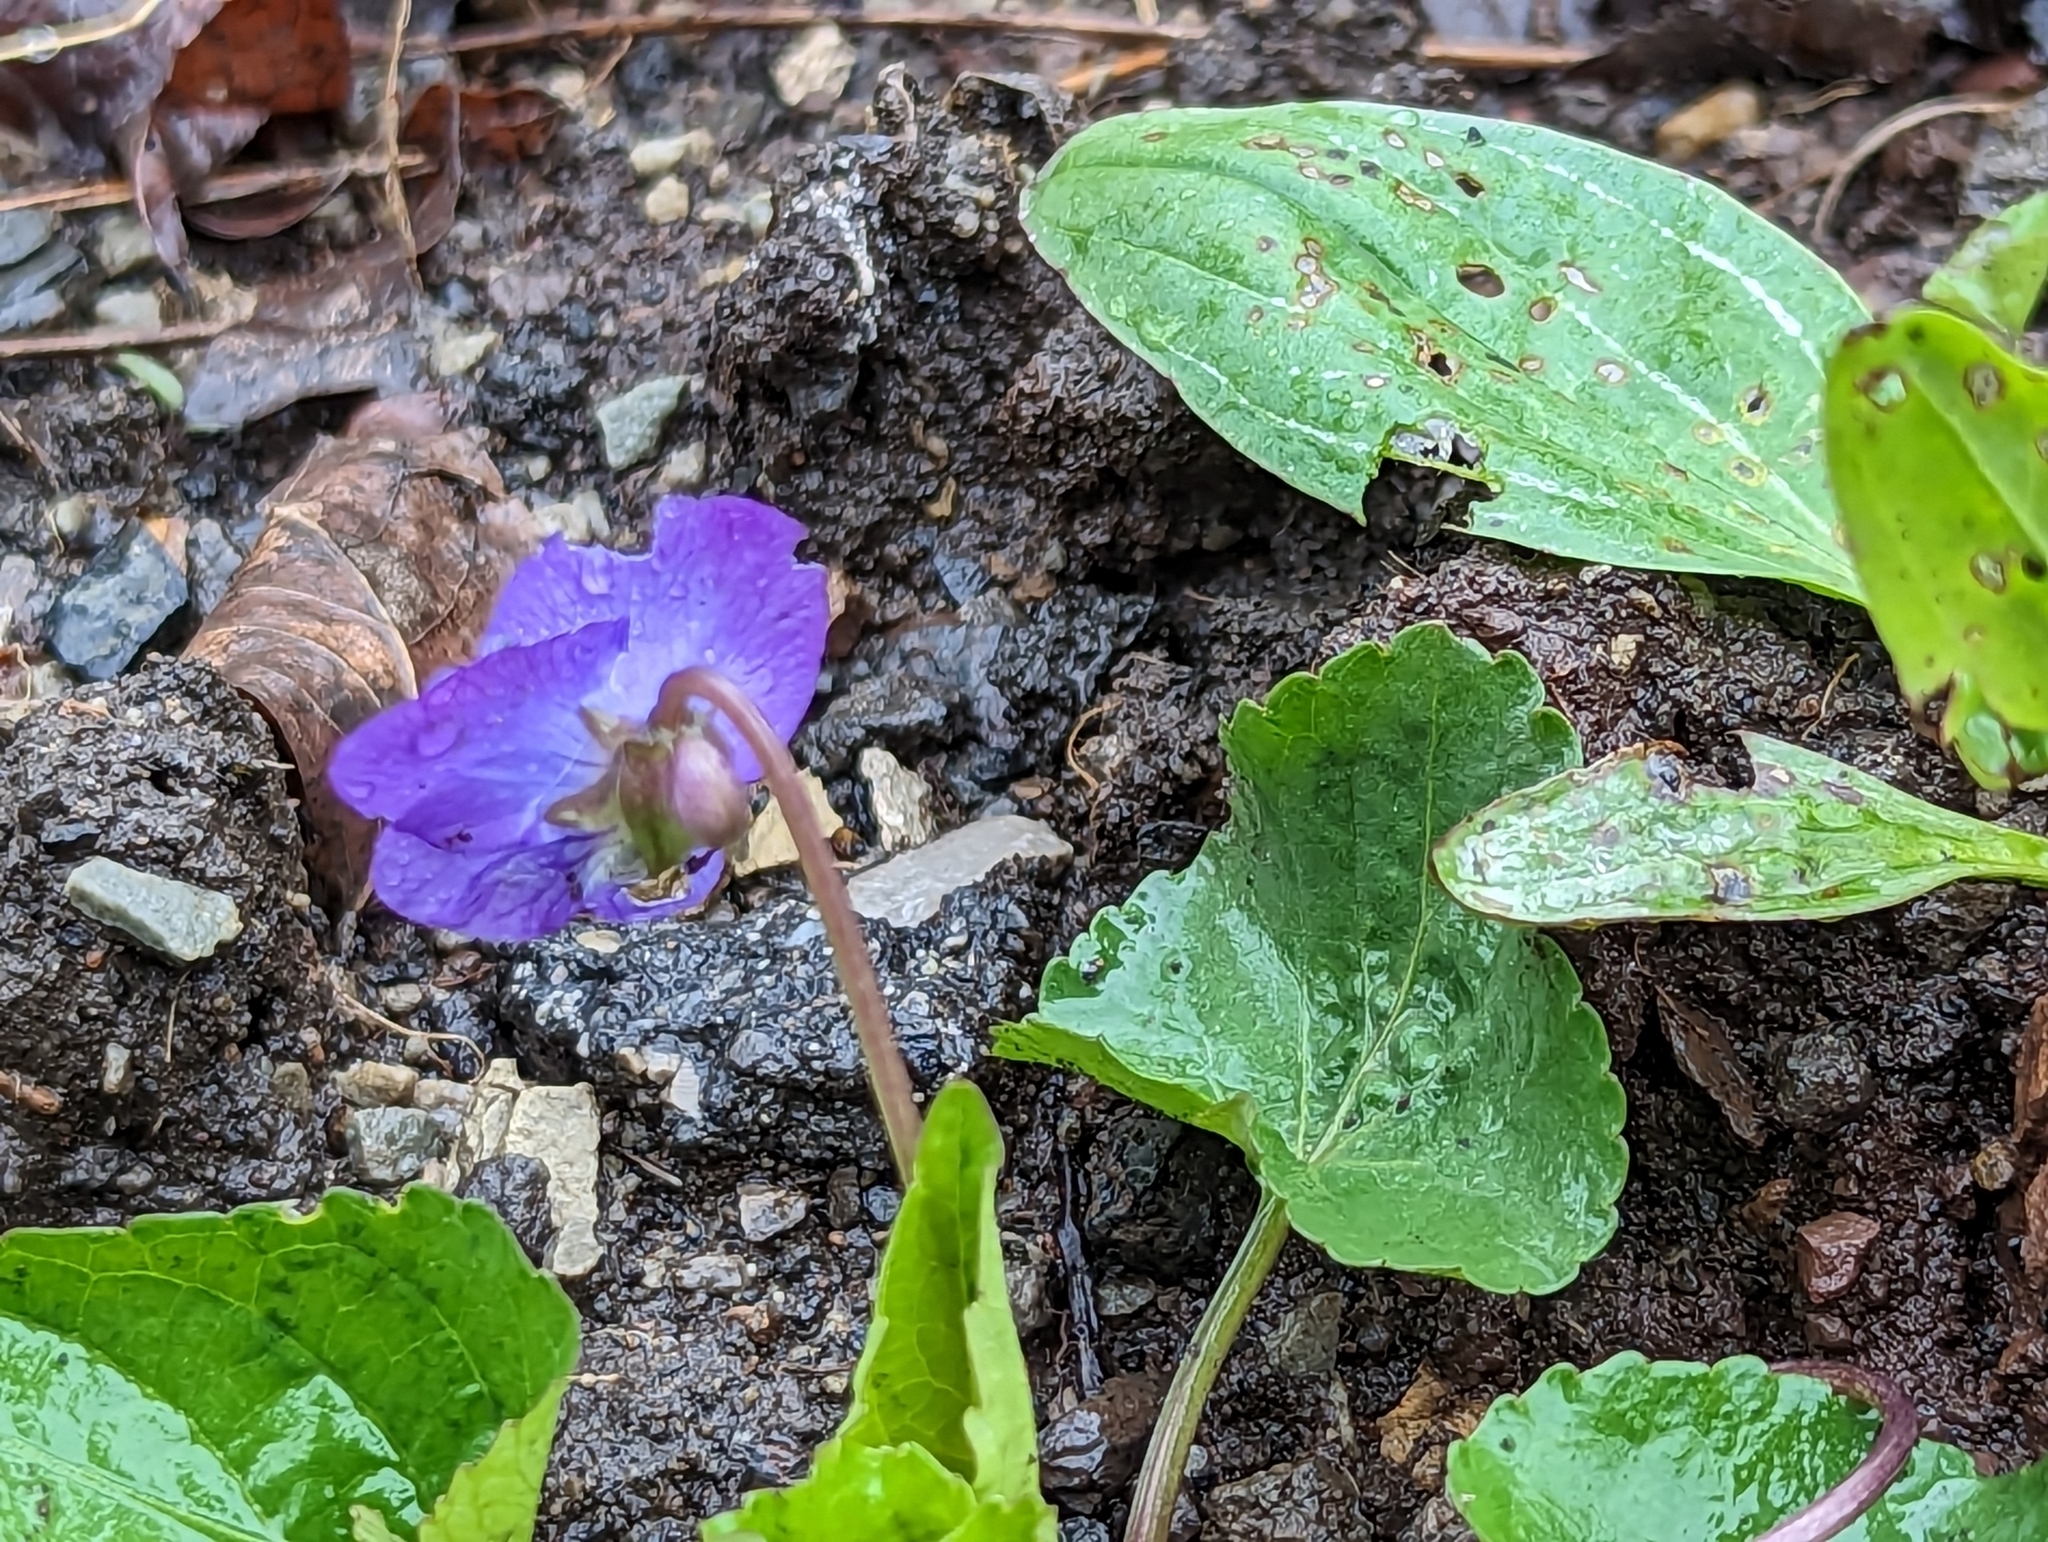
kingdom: Plantae
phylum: Tracheophyta
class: Magnoliopsida
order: Malpighiales
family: Violaceae
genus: Viola
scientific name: Viola sororia
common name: Dooryard violet
